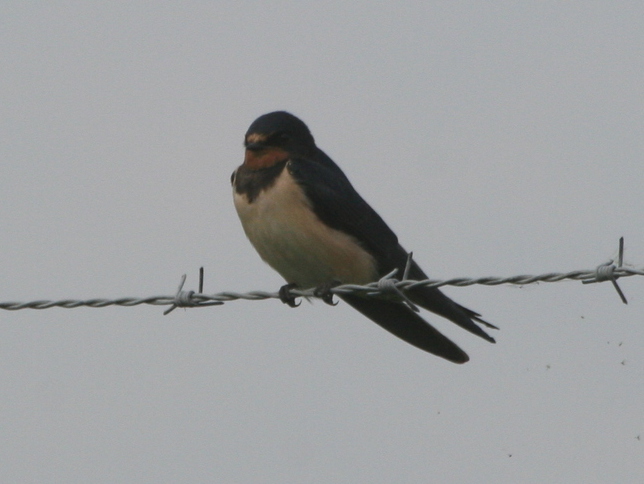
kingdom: Animalia
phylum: Chordata
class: Aves
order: Passeriformes
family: Hirundinidae
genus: Hirundo
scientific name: Hirundo rustica
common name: Barn swallow
